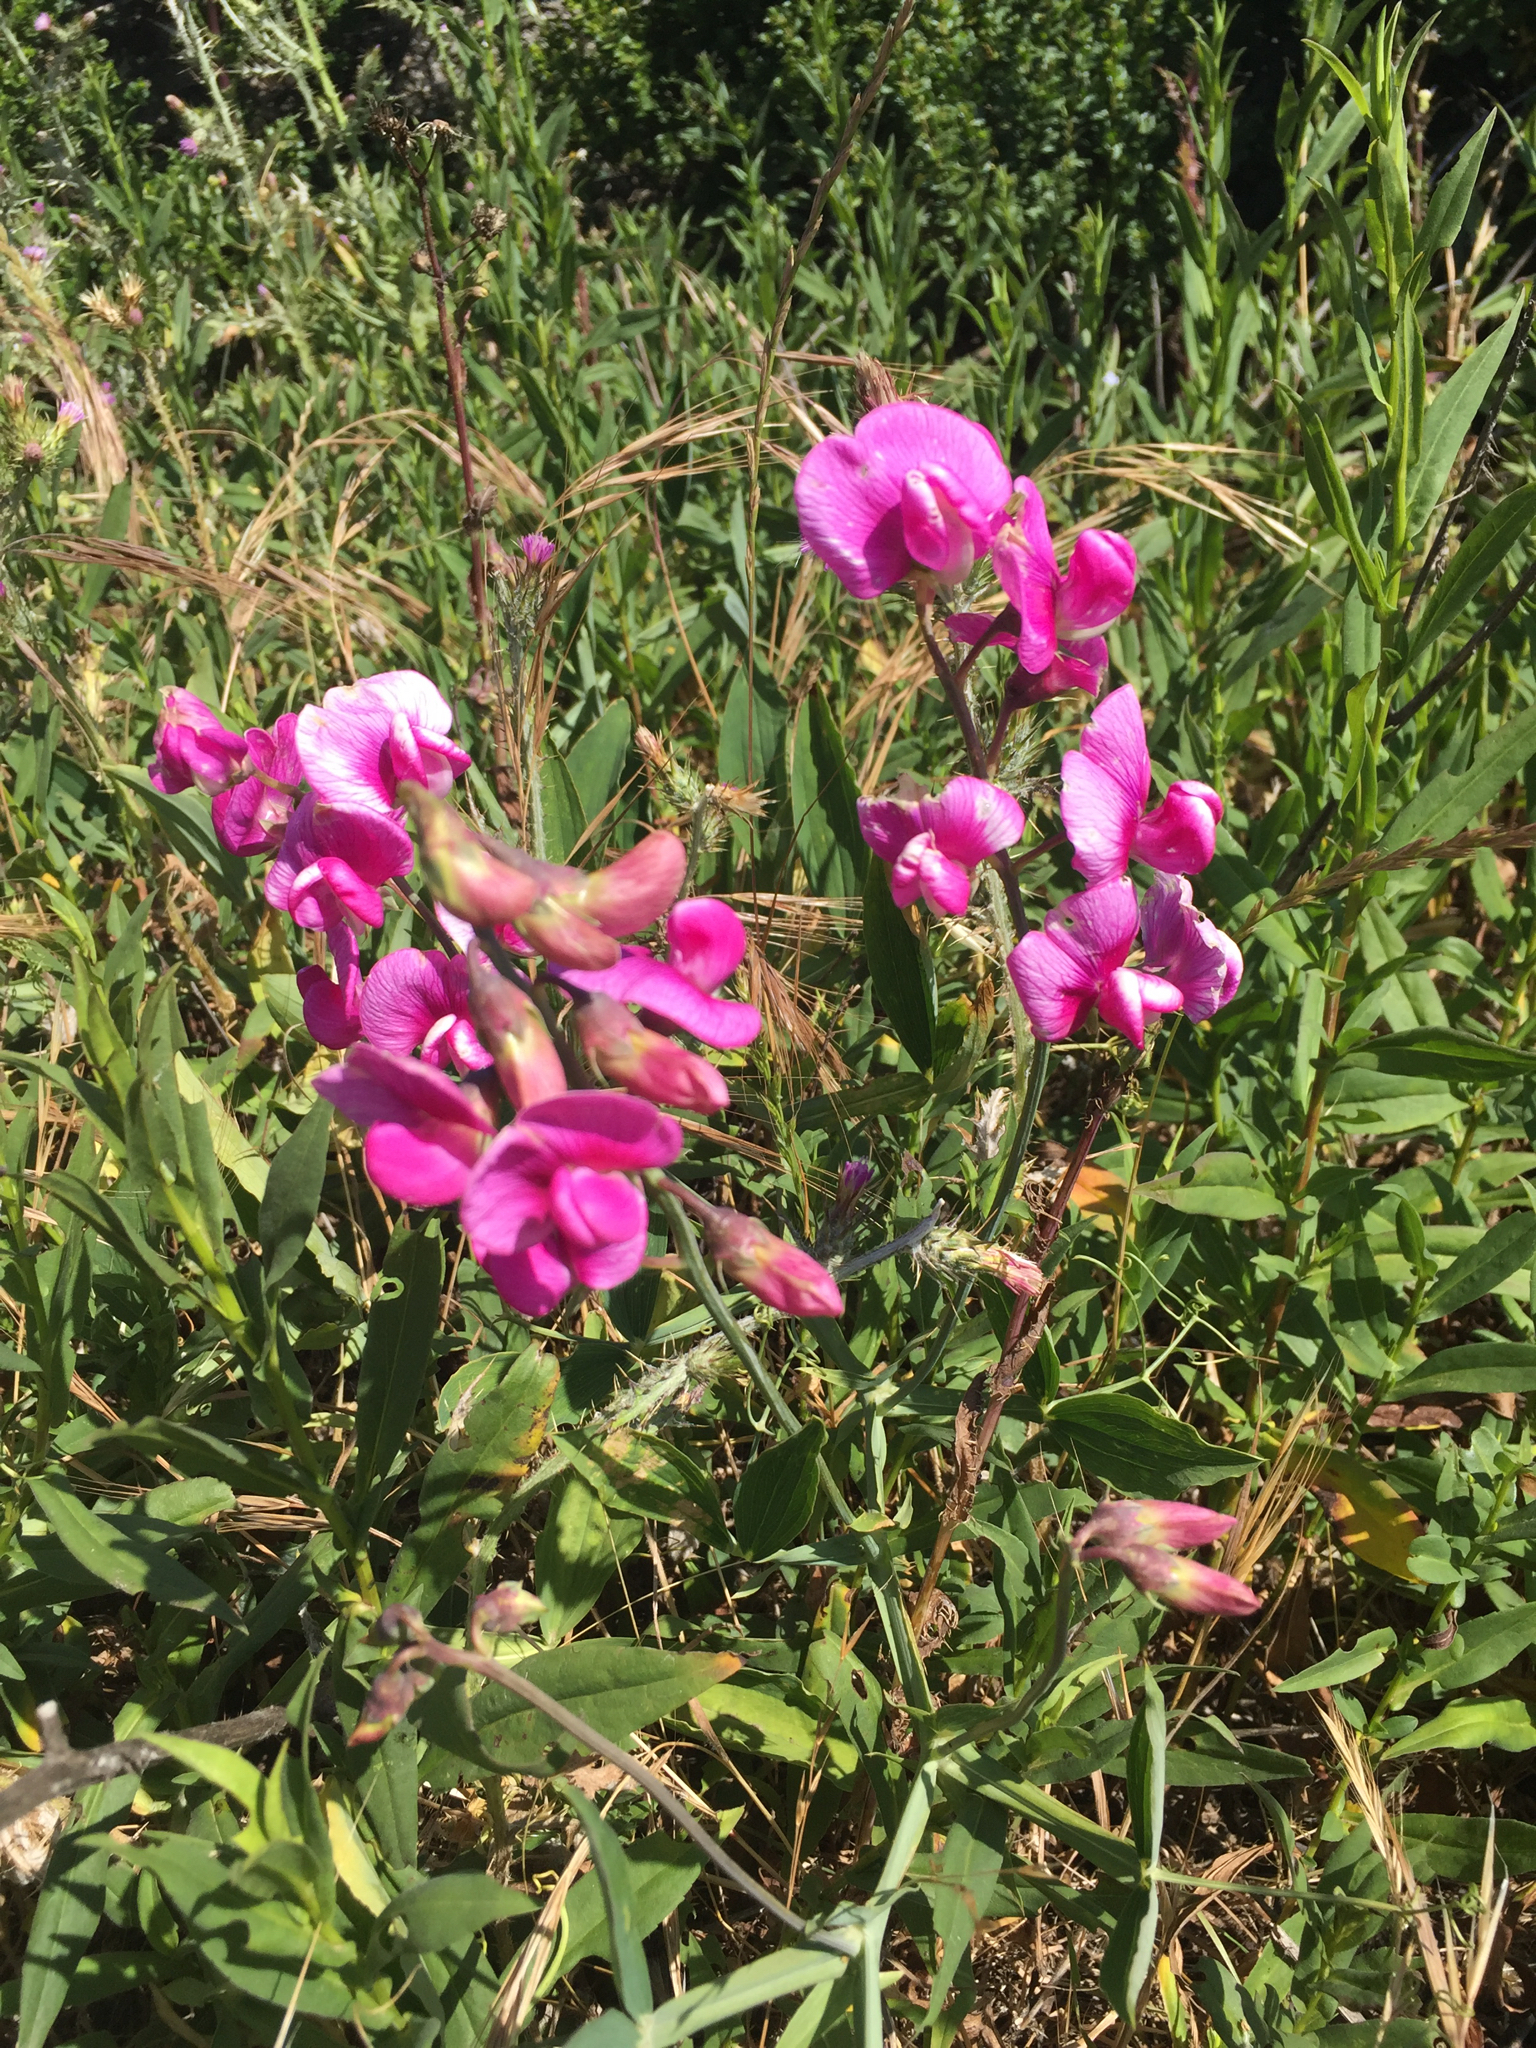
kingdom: Plantae
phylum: Tracheophyta
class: Magnoliopsida
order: Fabales
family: Fabaceae
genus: Lathyrus
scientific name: Lathyrus latifolius
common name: Perennial pea
